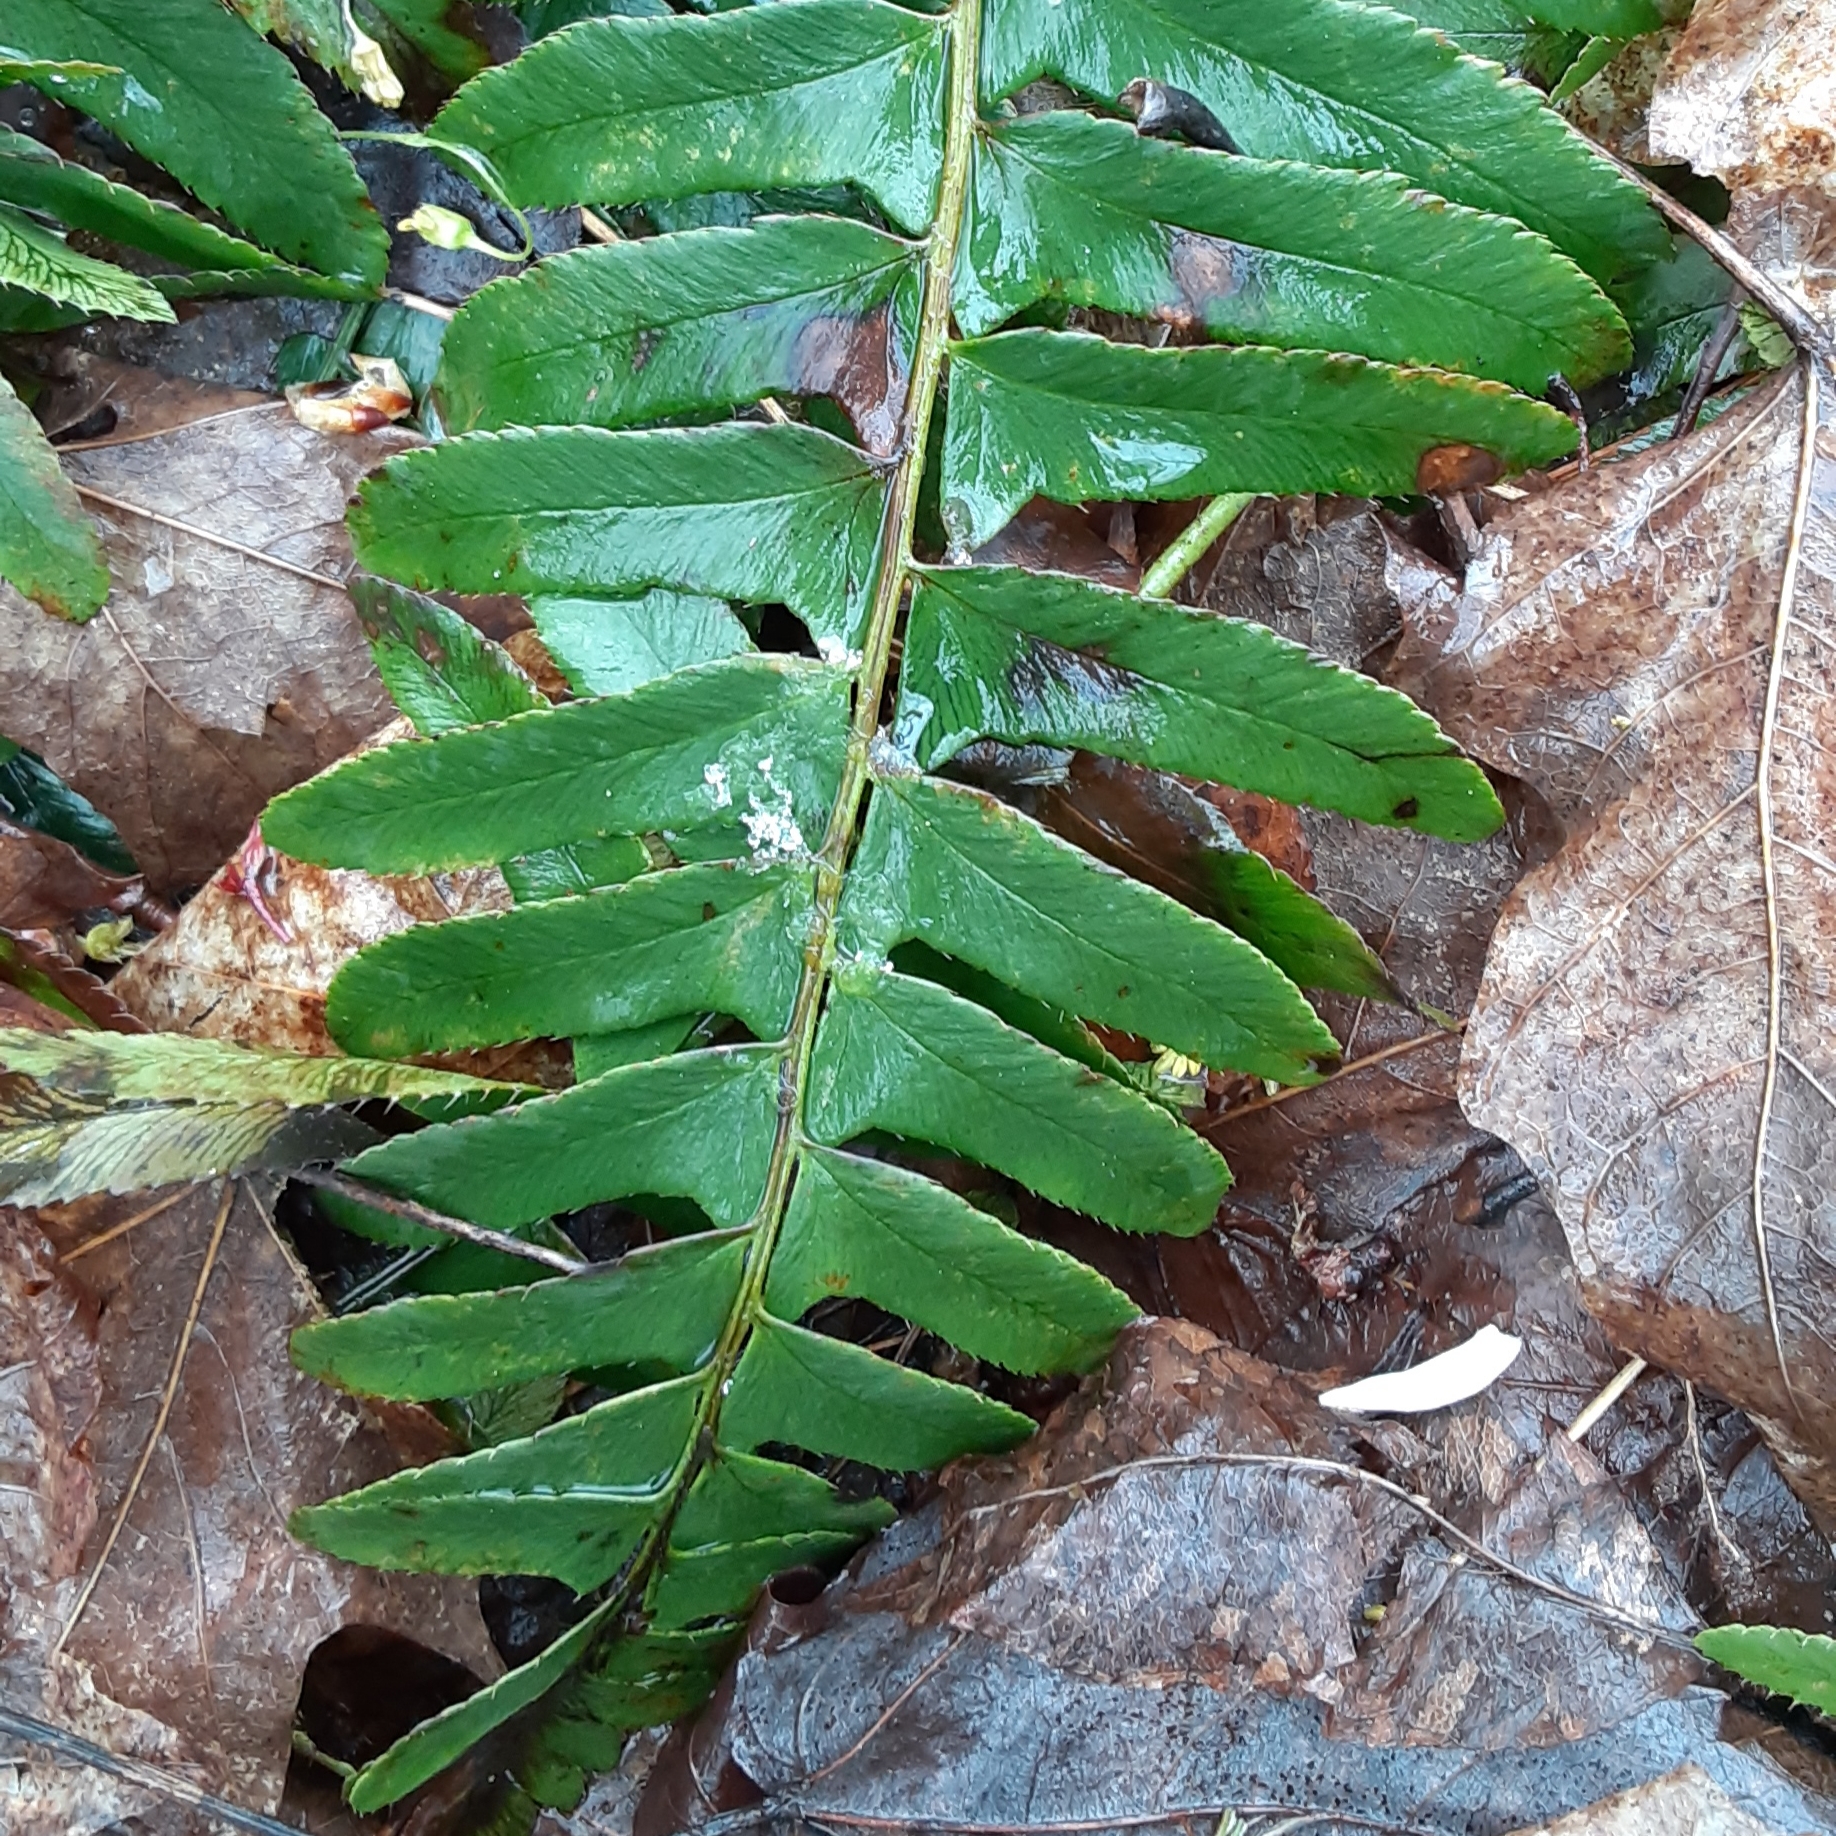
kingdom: Plantae
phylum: Tracheophyta
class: Polypodiopsida
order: Polypodiales
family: Dryopteridaceae
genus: Polystichum
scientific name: Polystichum acrostichoides
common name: Christmas fern
